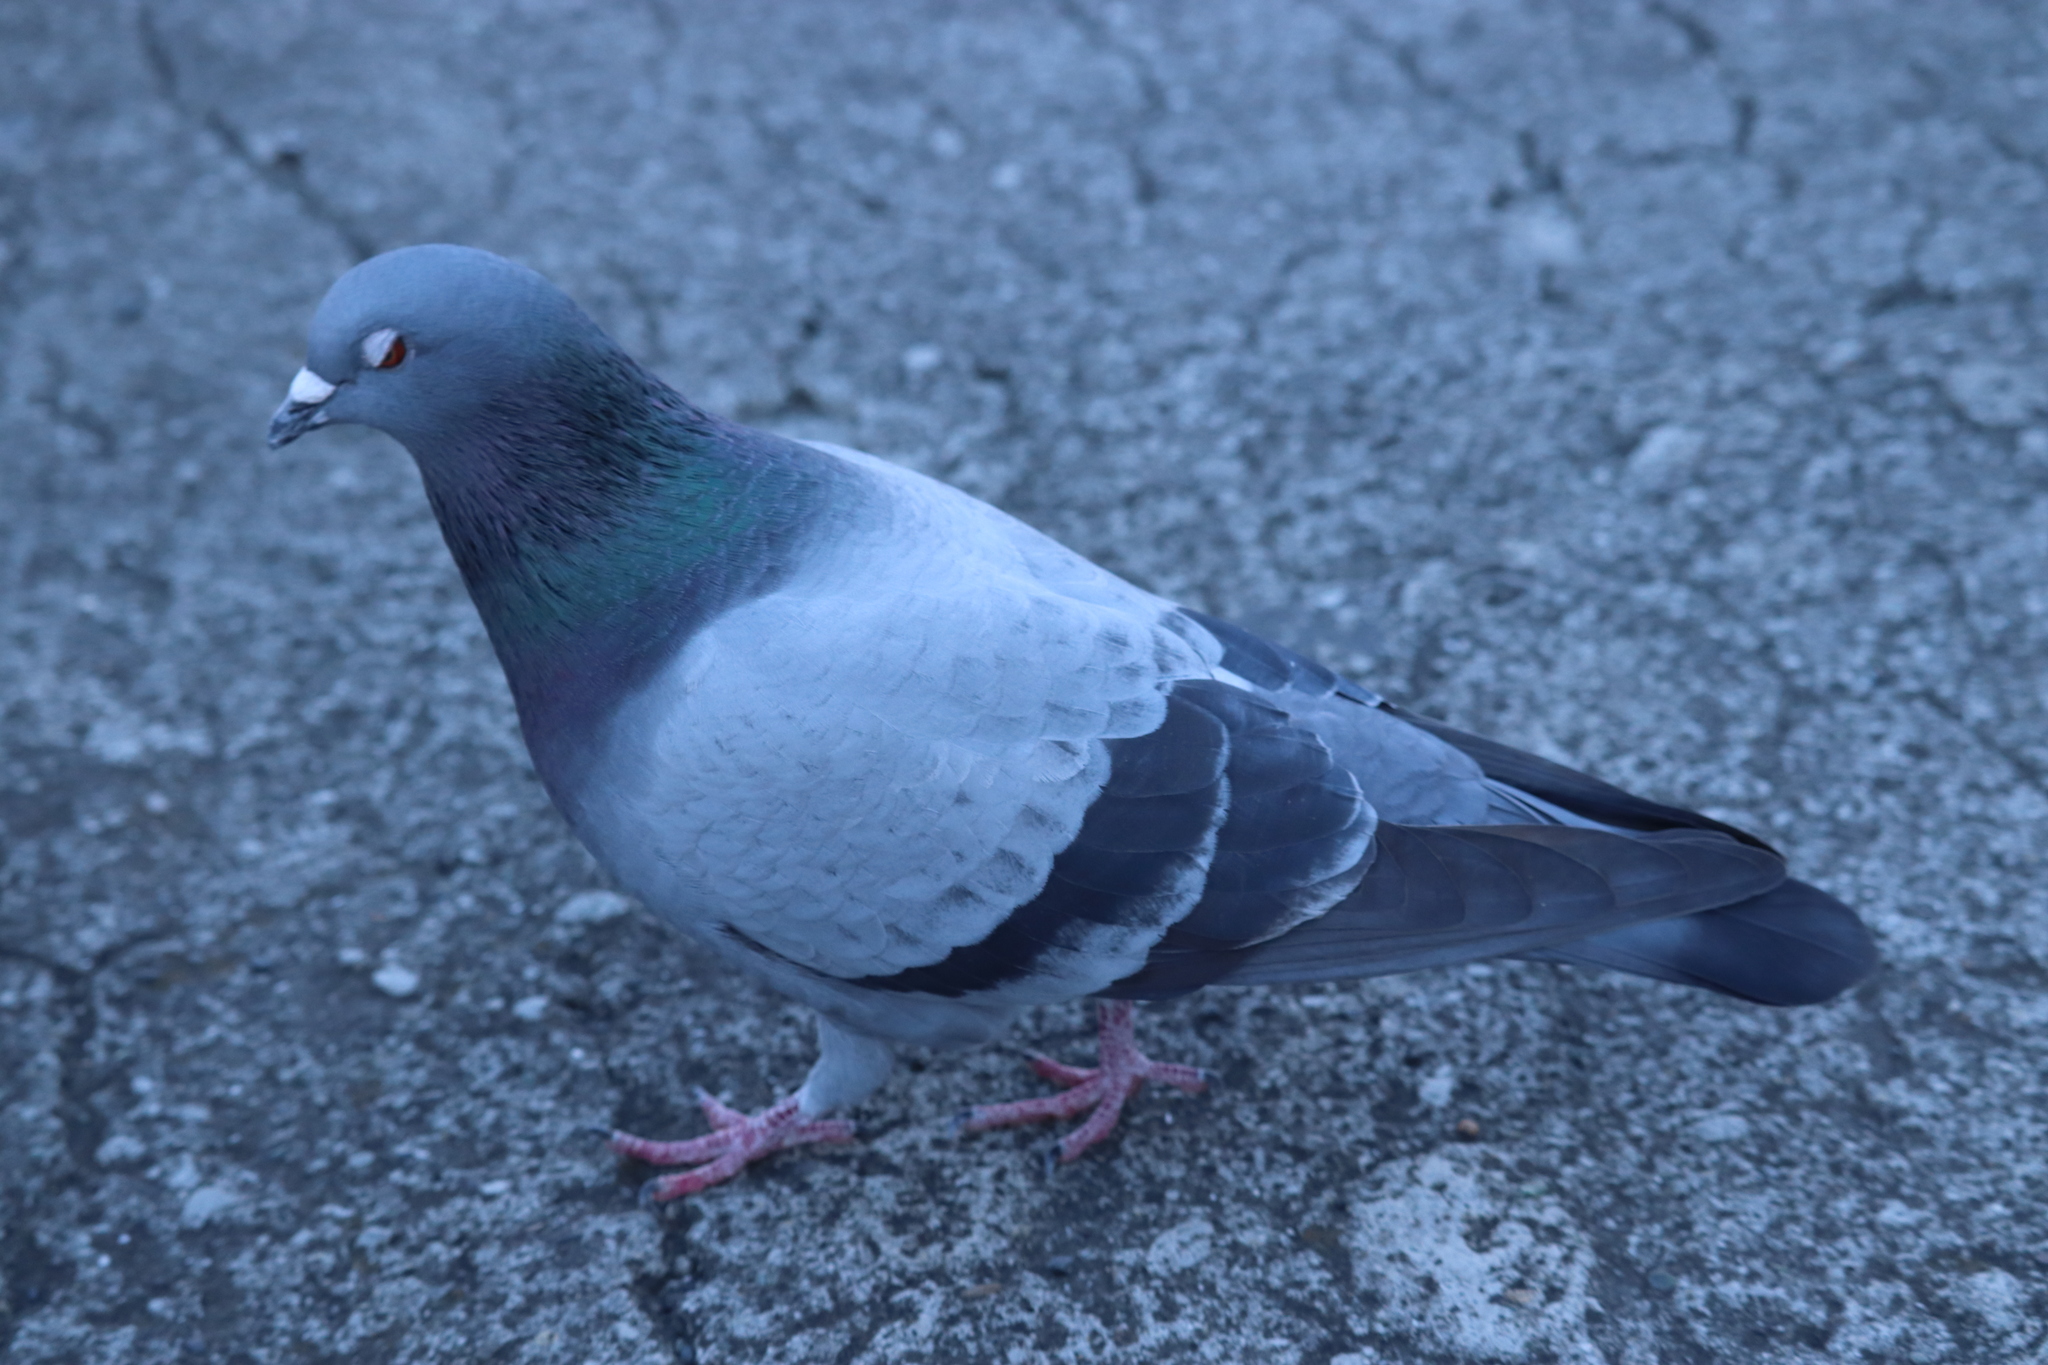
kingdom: Animalia
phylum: Chordata
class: Aves
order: Columbiformes
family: Columbidae
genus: Columba
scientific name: Columba livia
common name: Rock pigeon
